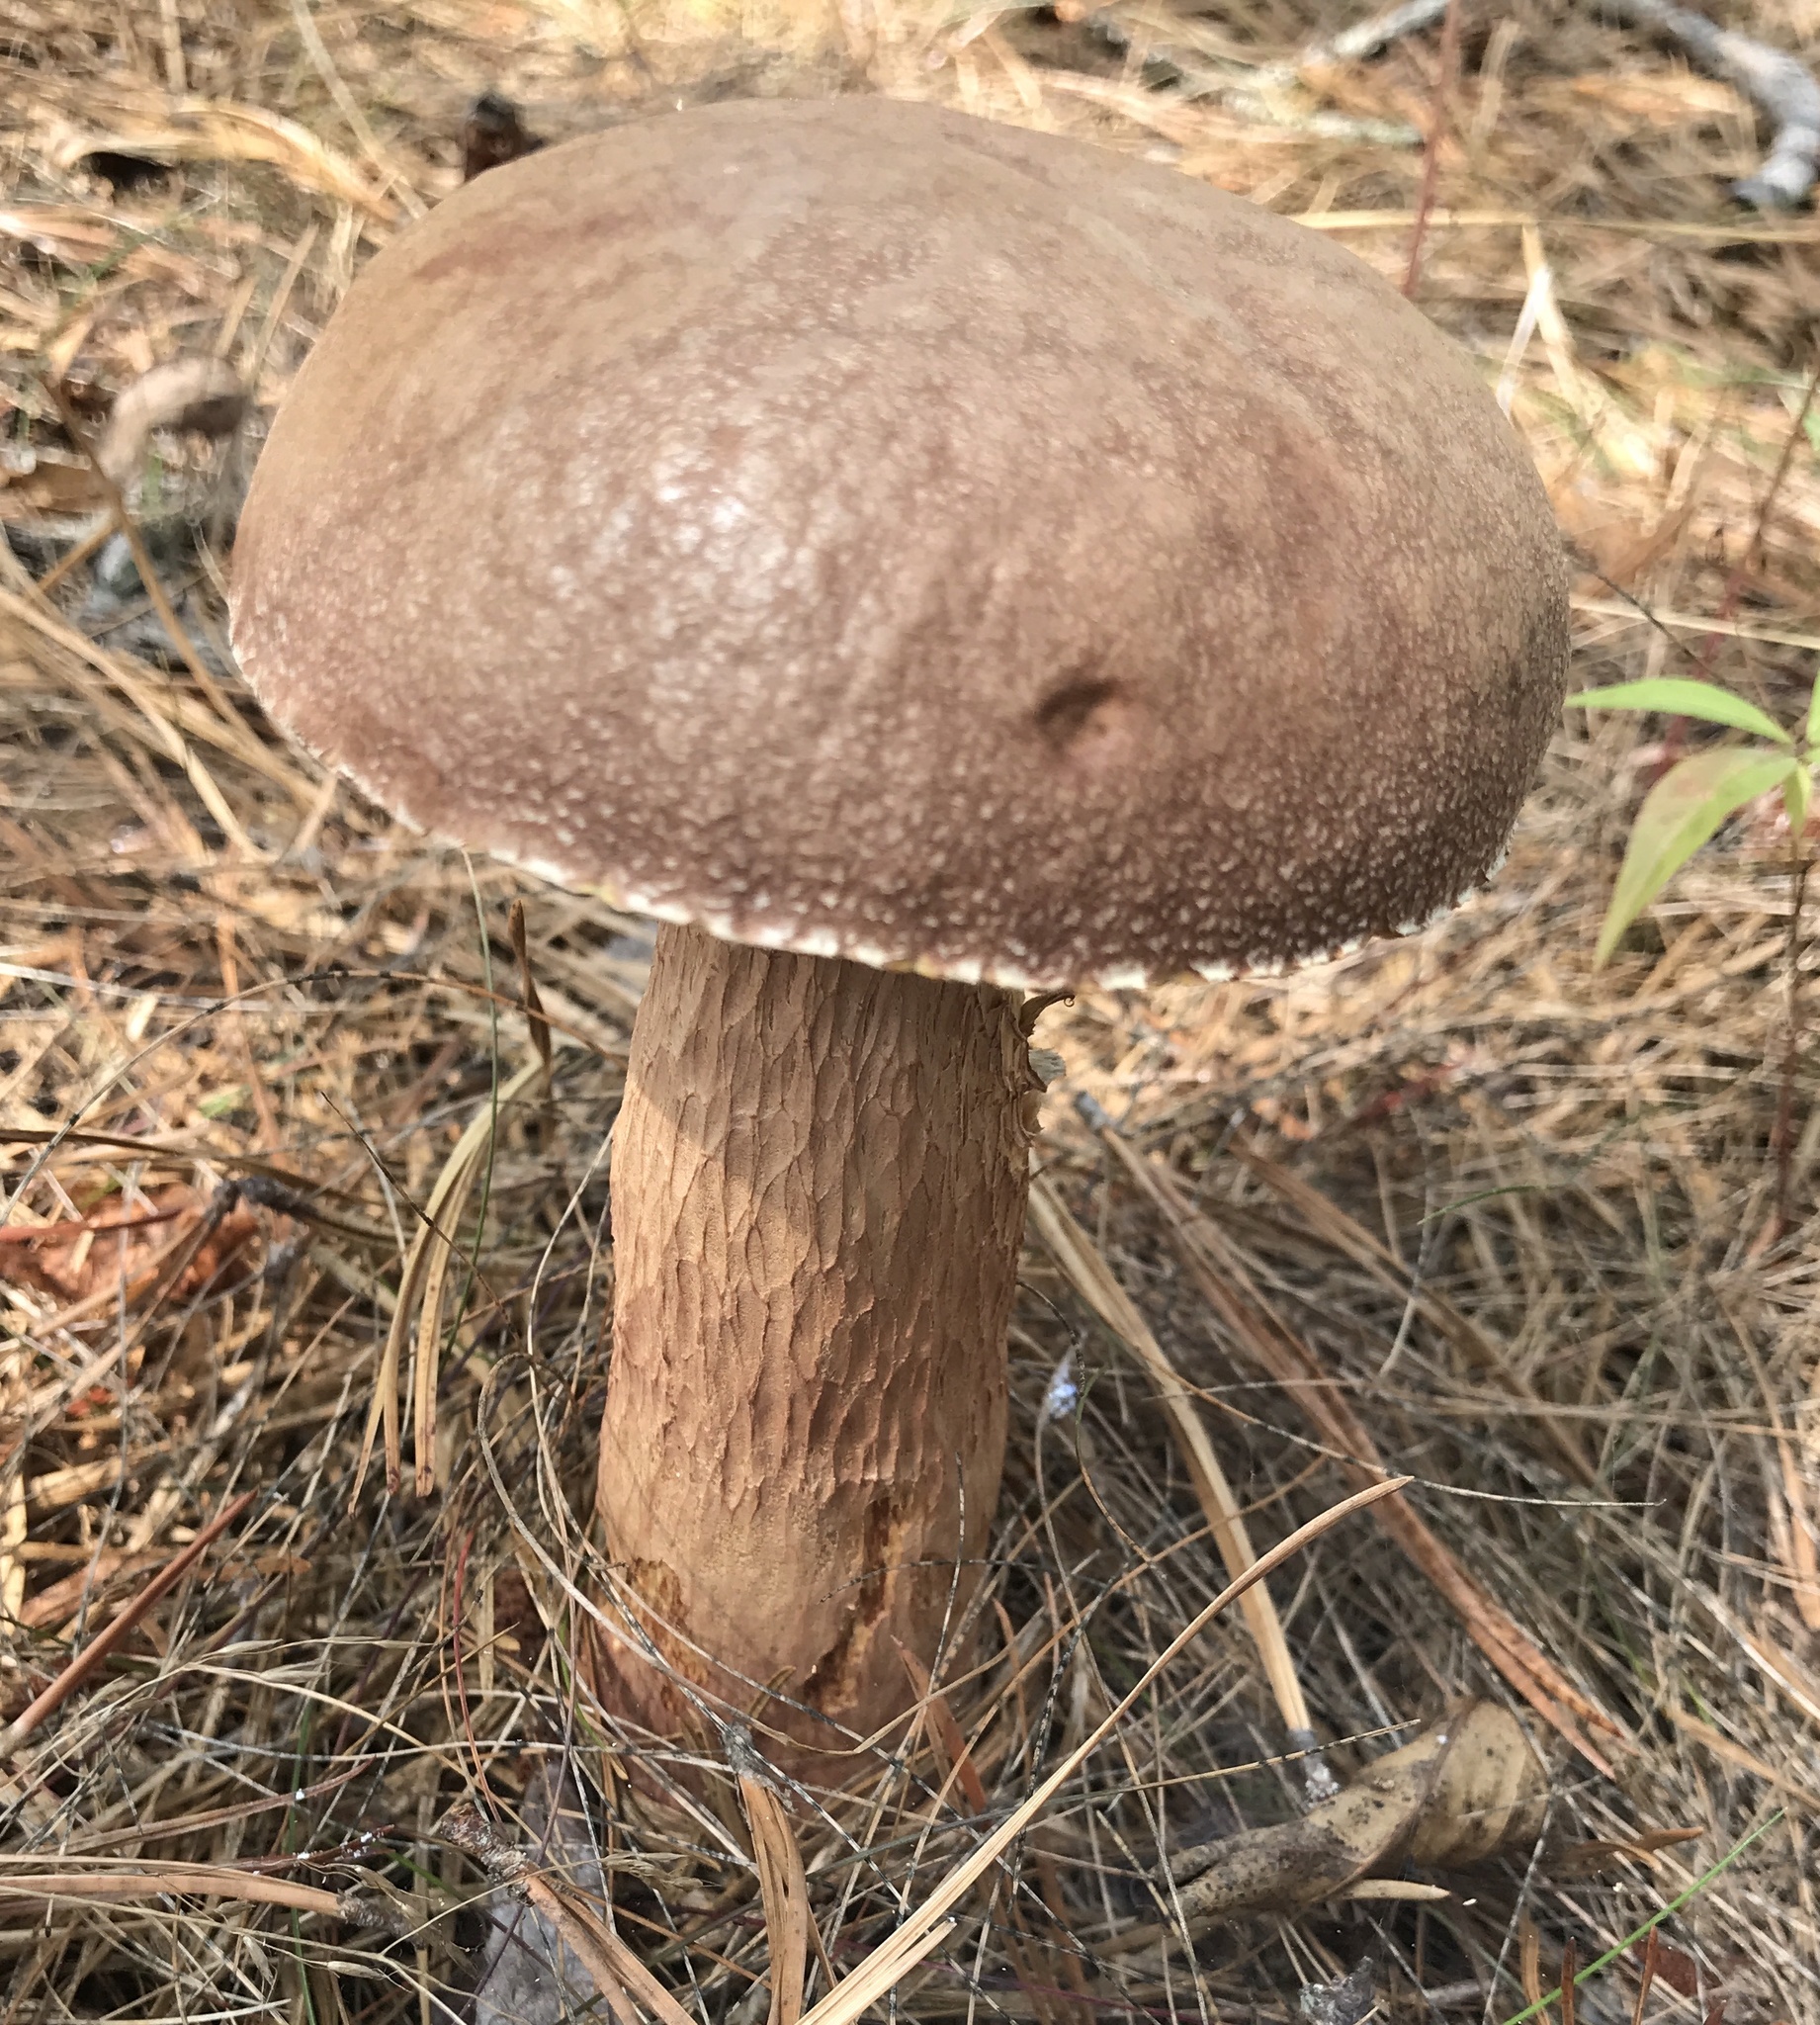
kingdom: Fungi
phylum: Basidiomycota
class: Agaricomycetes
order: Boletales
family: Boletaceae
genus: Aureoboletus
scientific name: Aureoboletus projectellus
